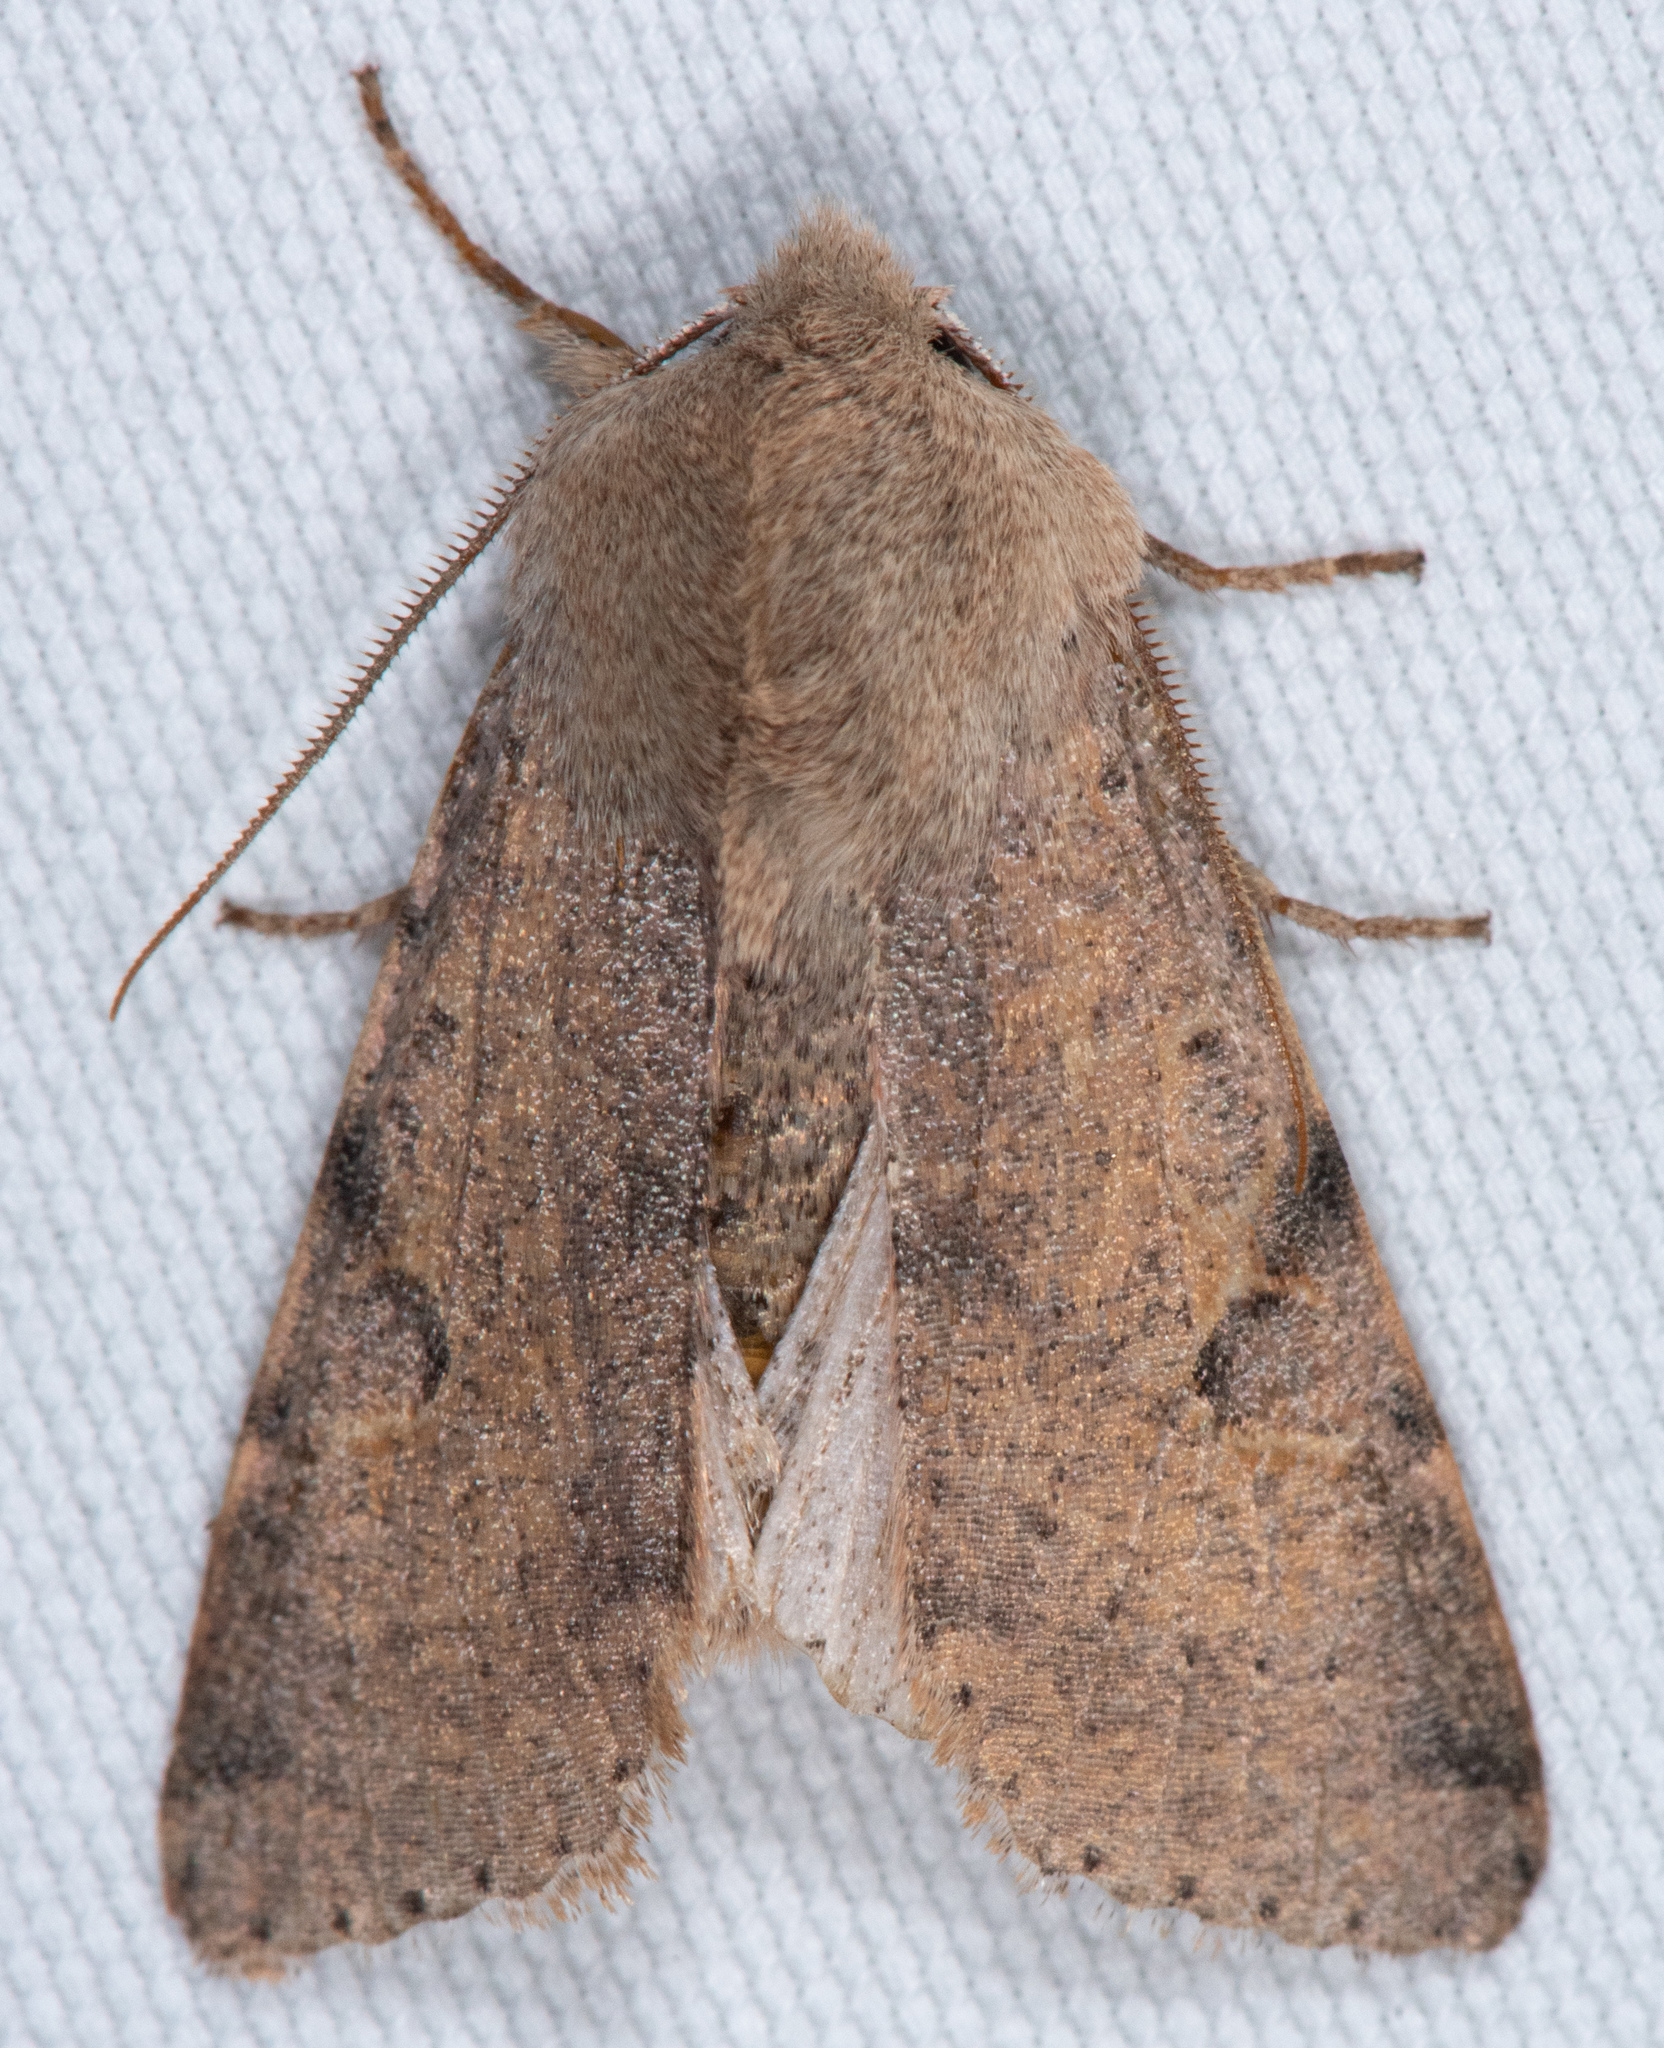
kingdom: Animalia
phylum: Arthropoda
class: Insecta
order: Lepidoptera
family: Noctuidae
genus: Orthosia
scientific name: Orthosia behrensiana
